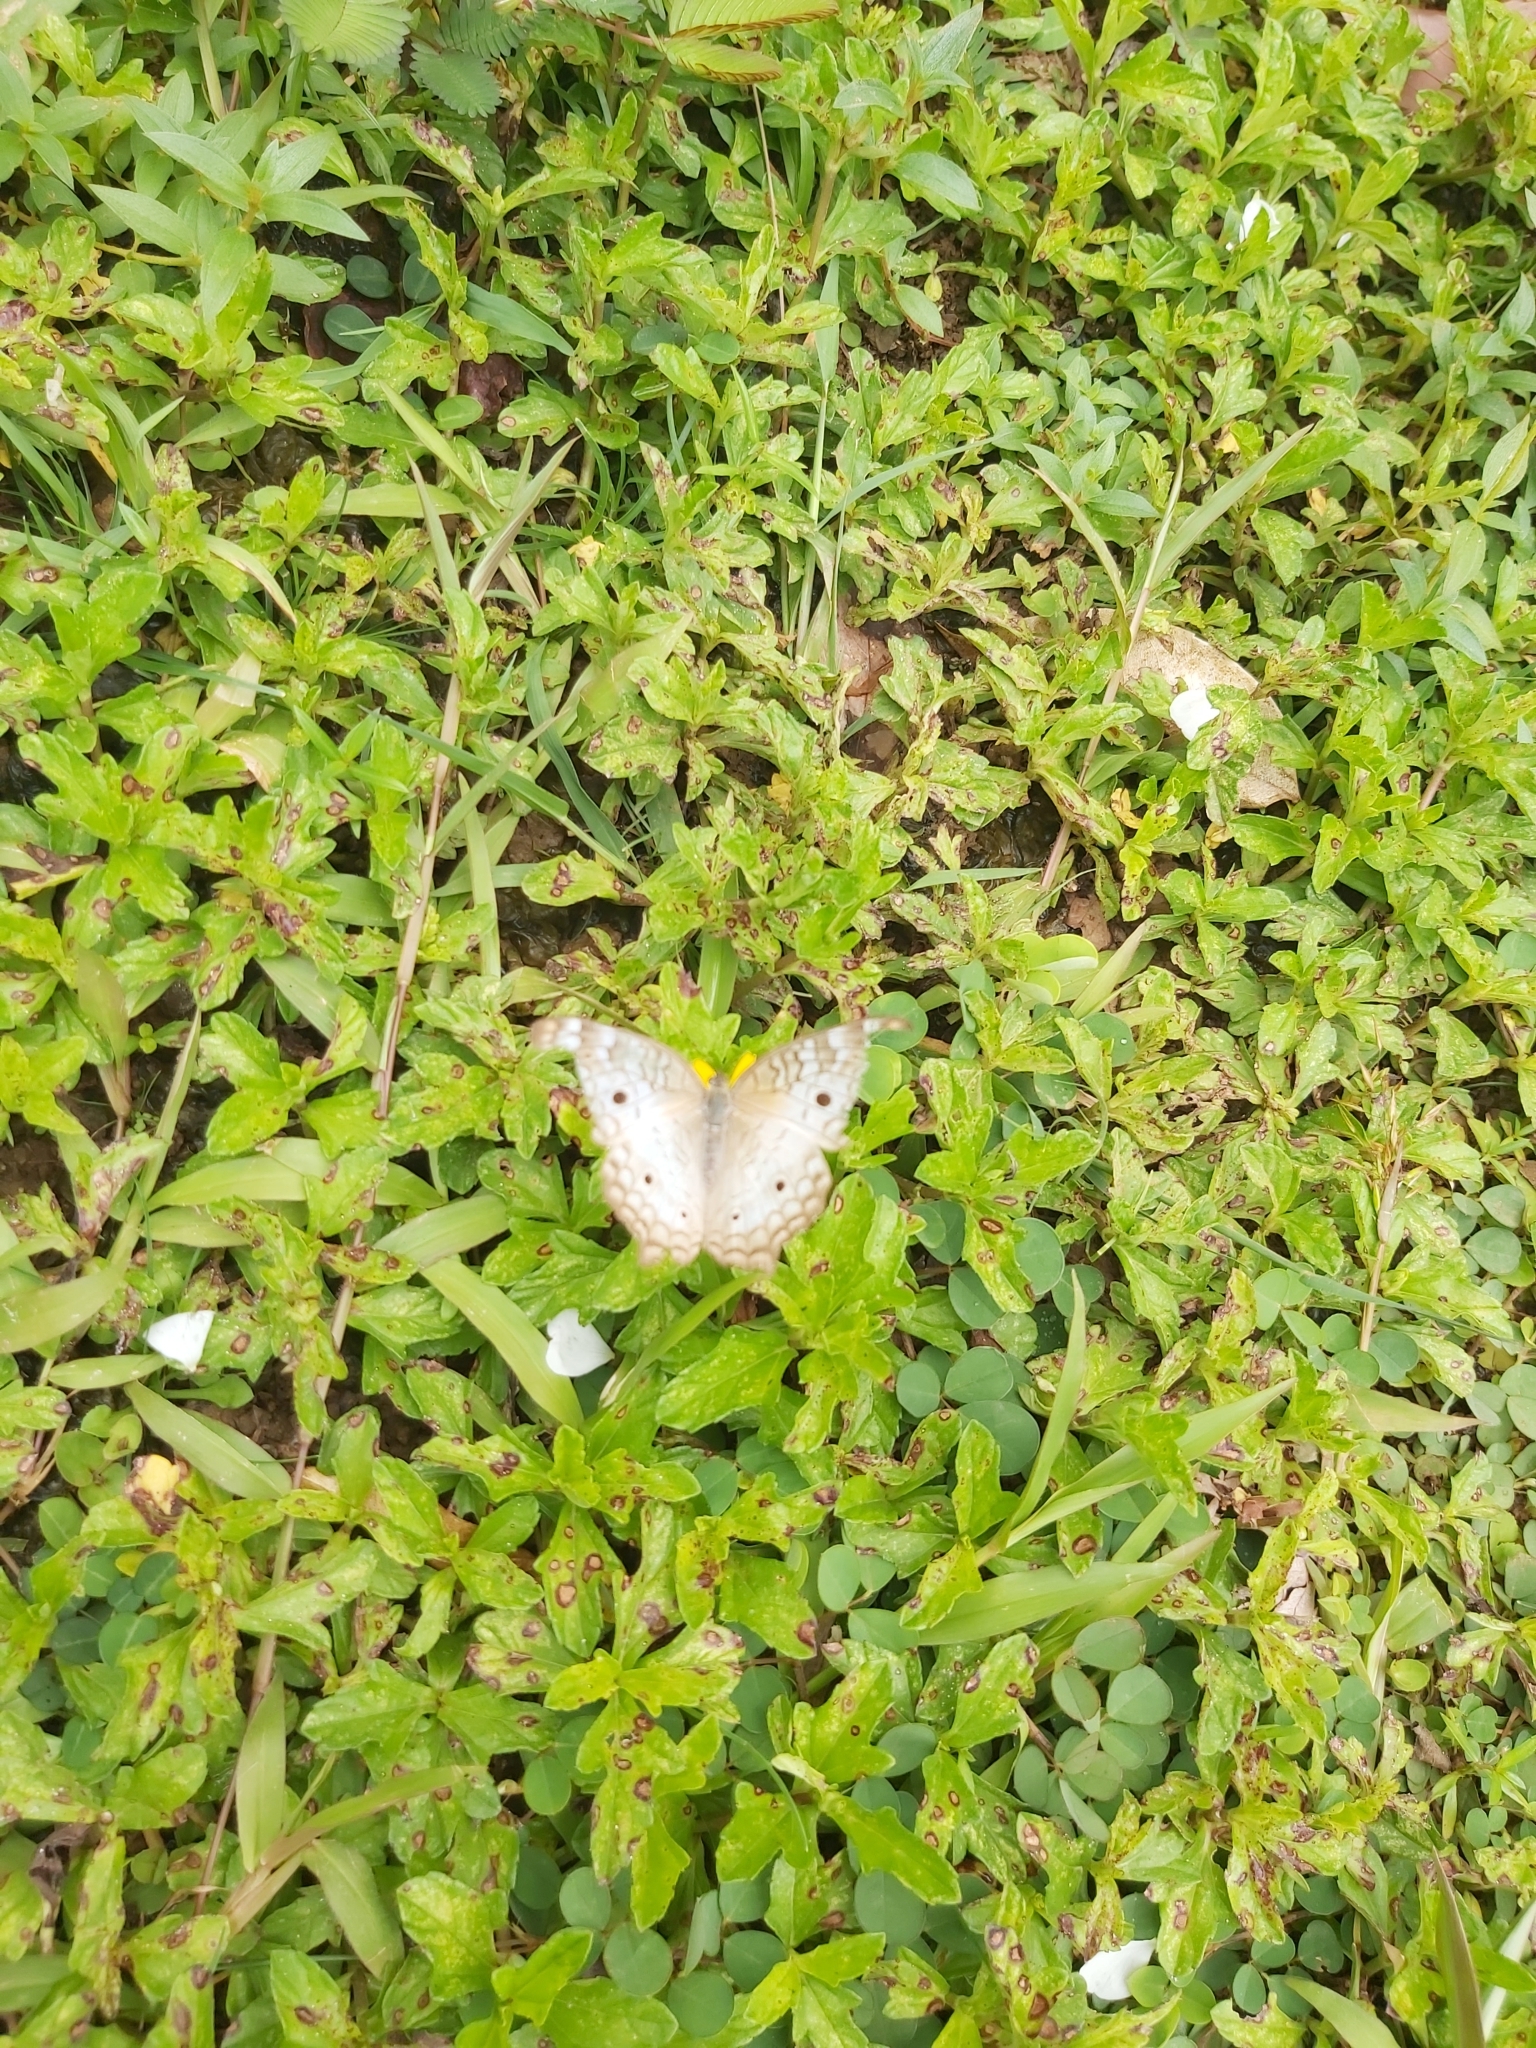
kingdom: Animalia
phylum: Arthropoda
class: Insecta
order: Lepidoptera
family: Nymphalidae
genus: Anartia
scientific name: Anartia jatrophae
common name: White peacock
